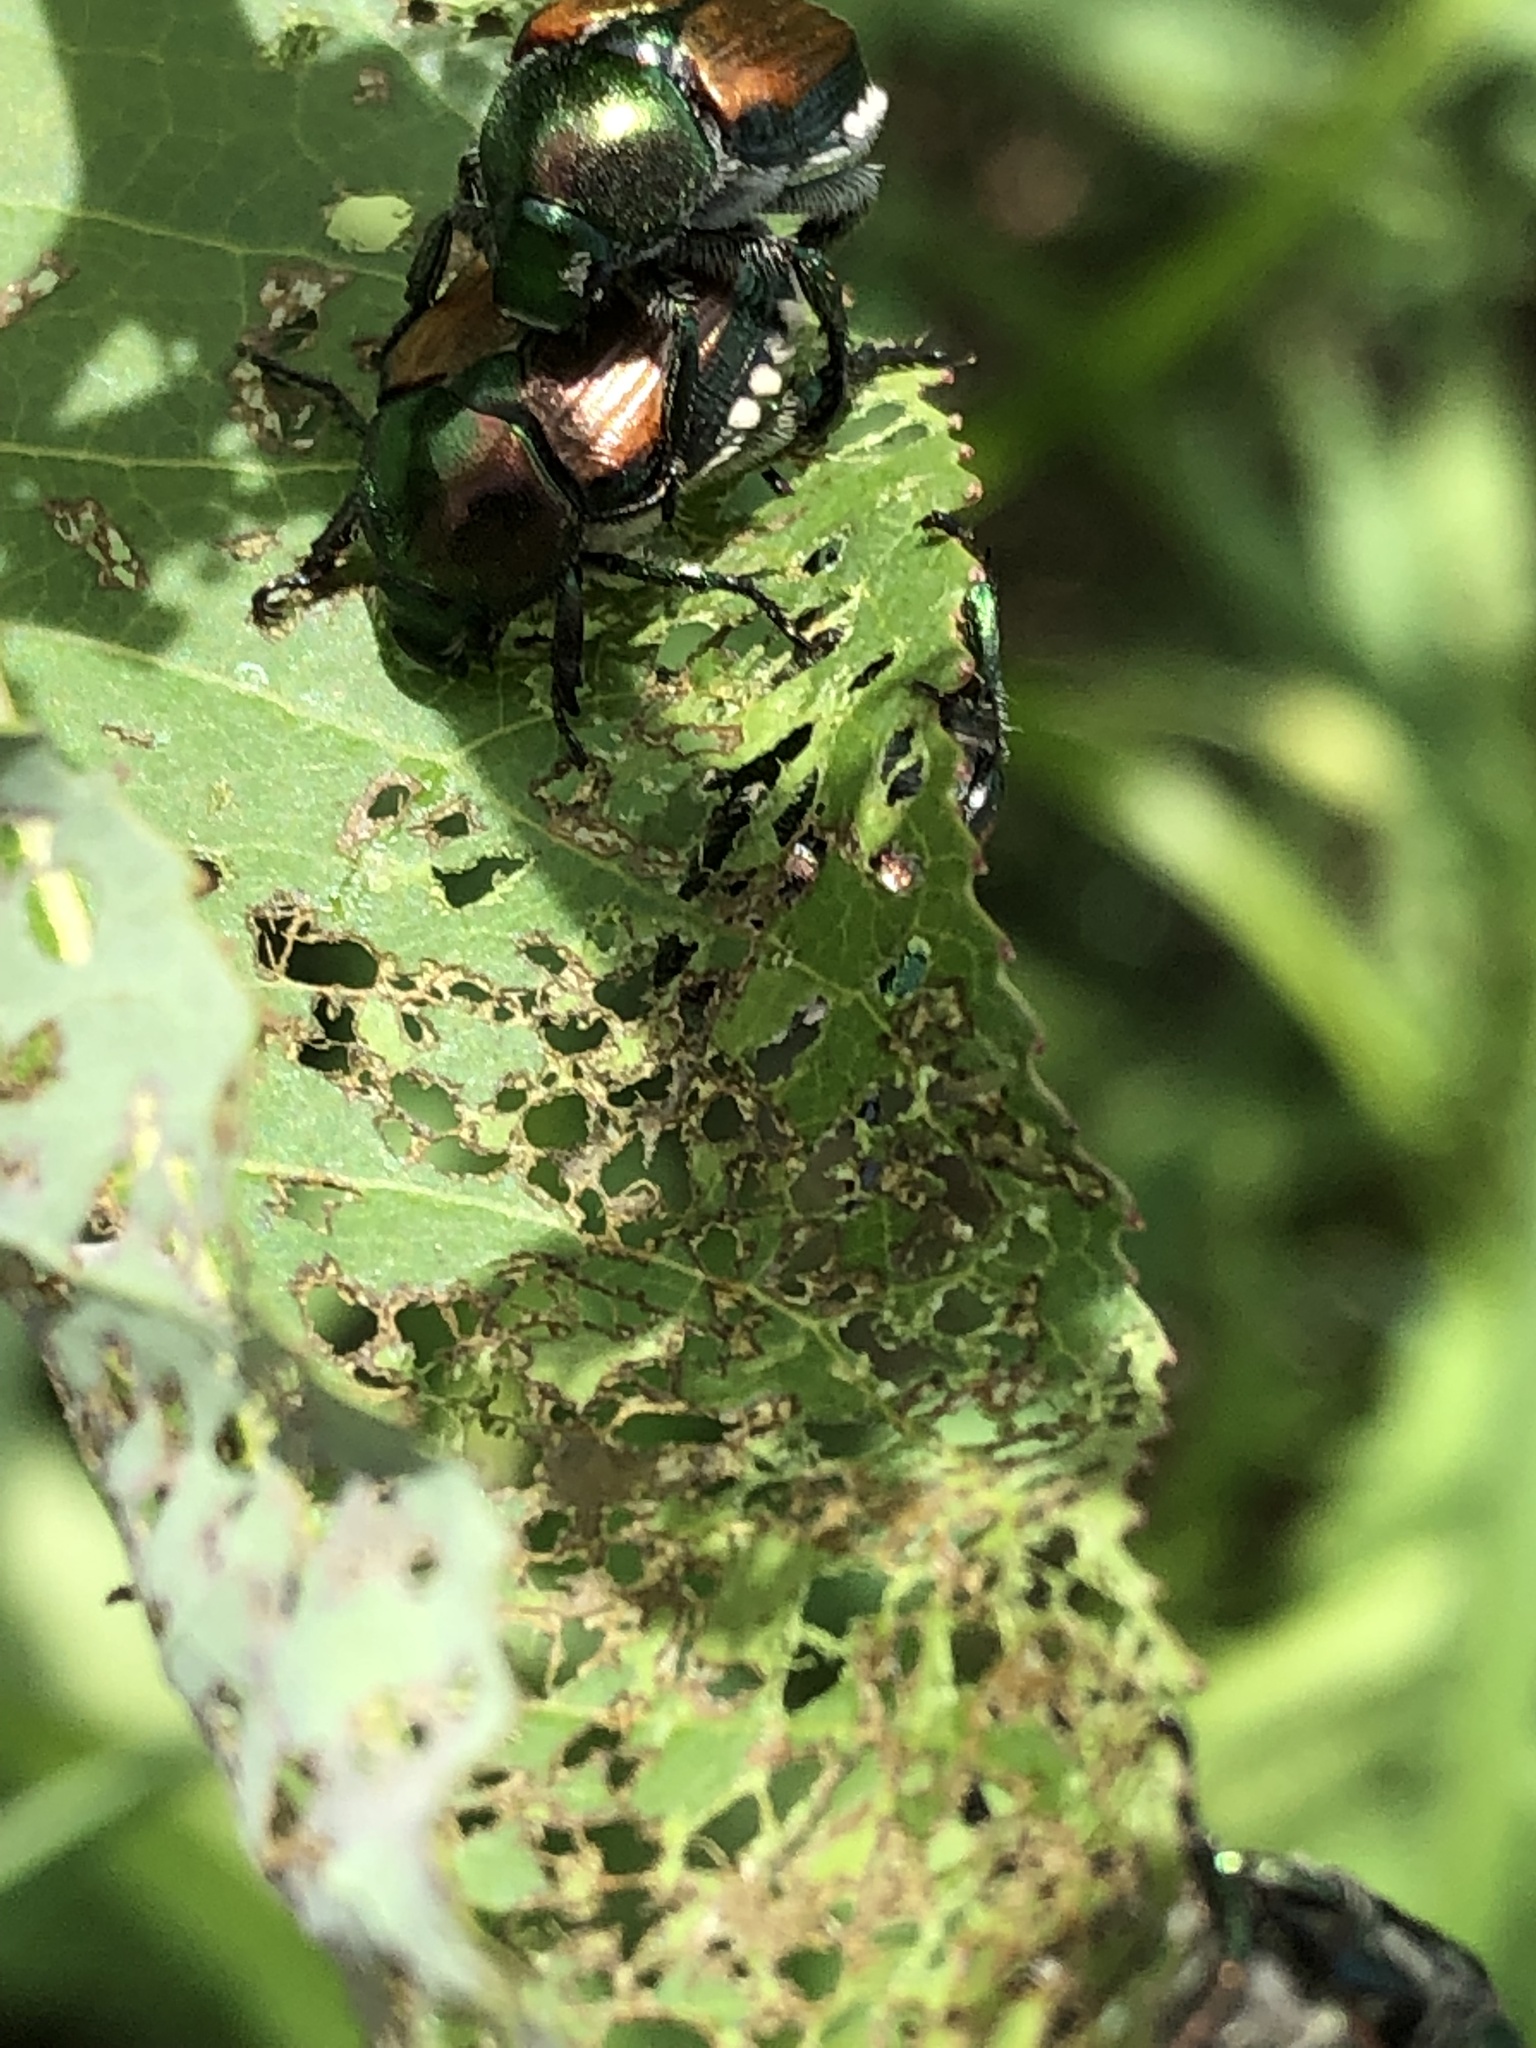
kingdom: Animalia
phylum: Arthropoda
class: Insecta
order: Coleoptera
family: Scarabaeidae
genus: Popillia
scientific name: Popillia japonica
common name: Japanese beetle
